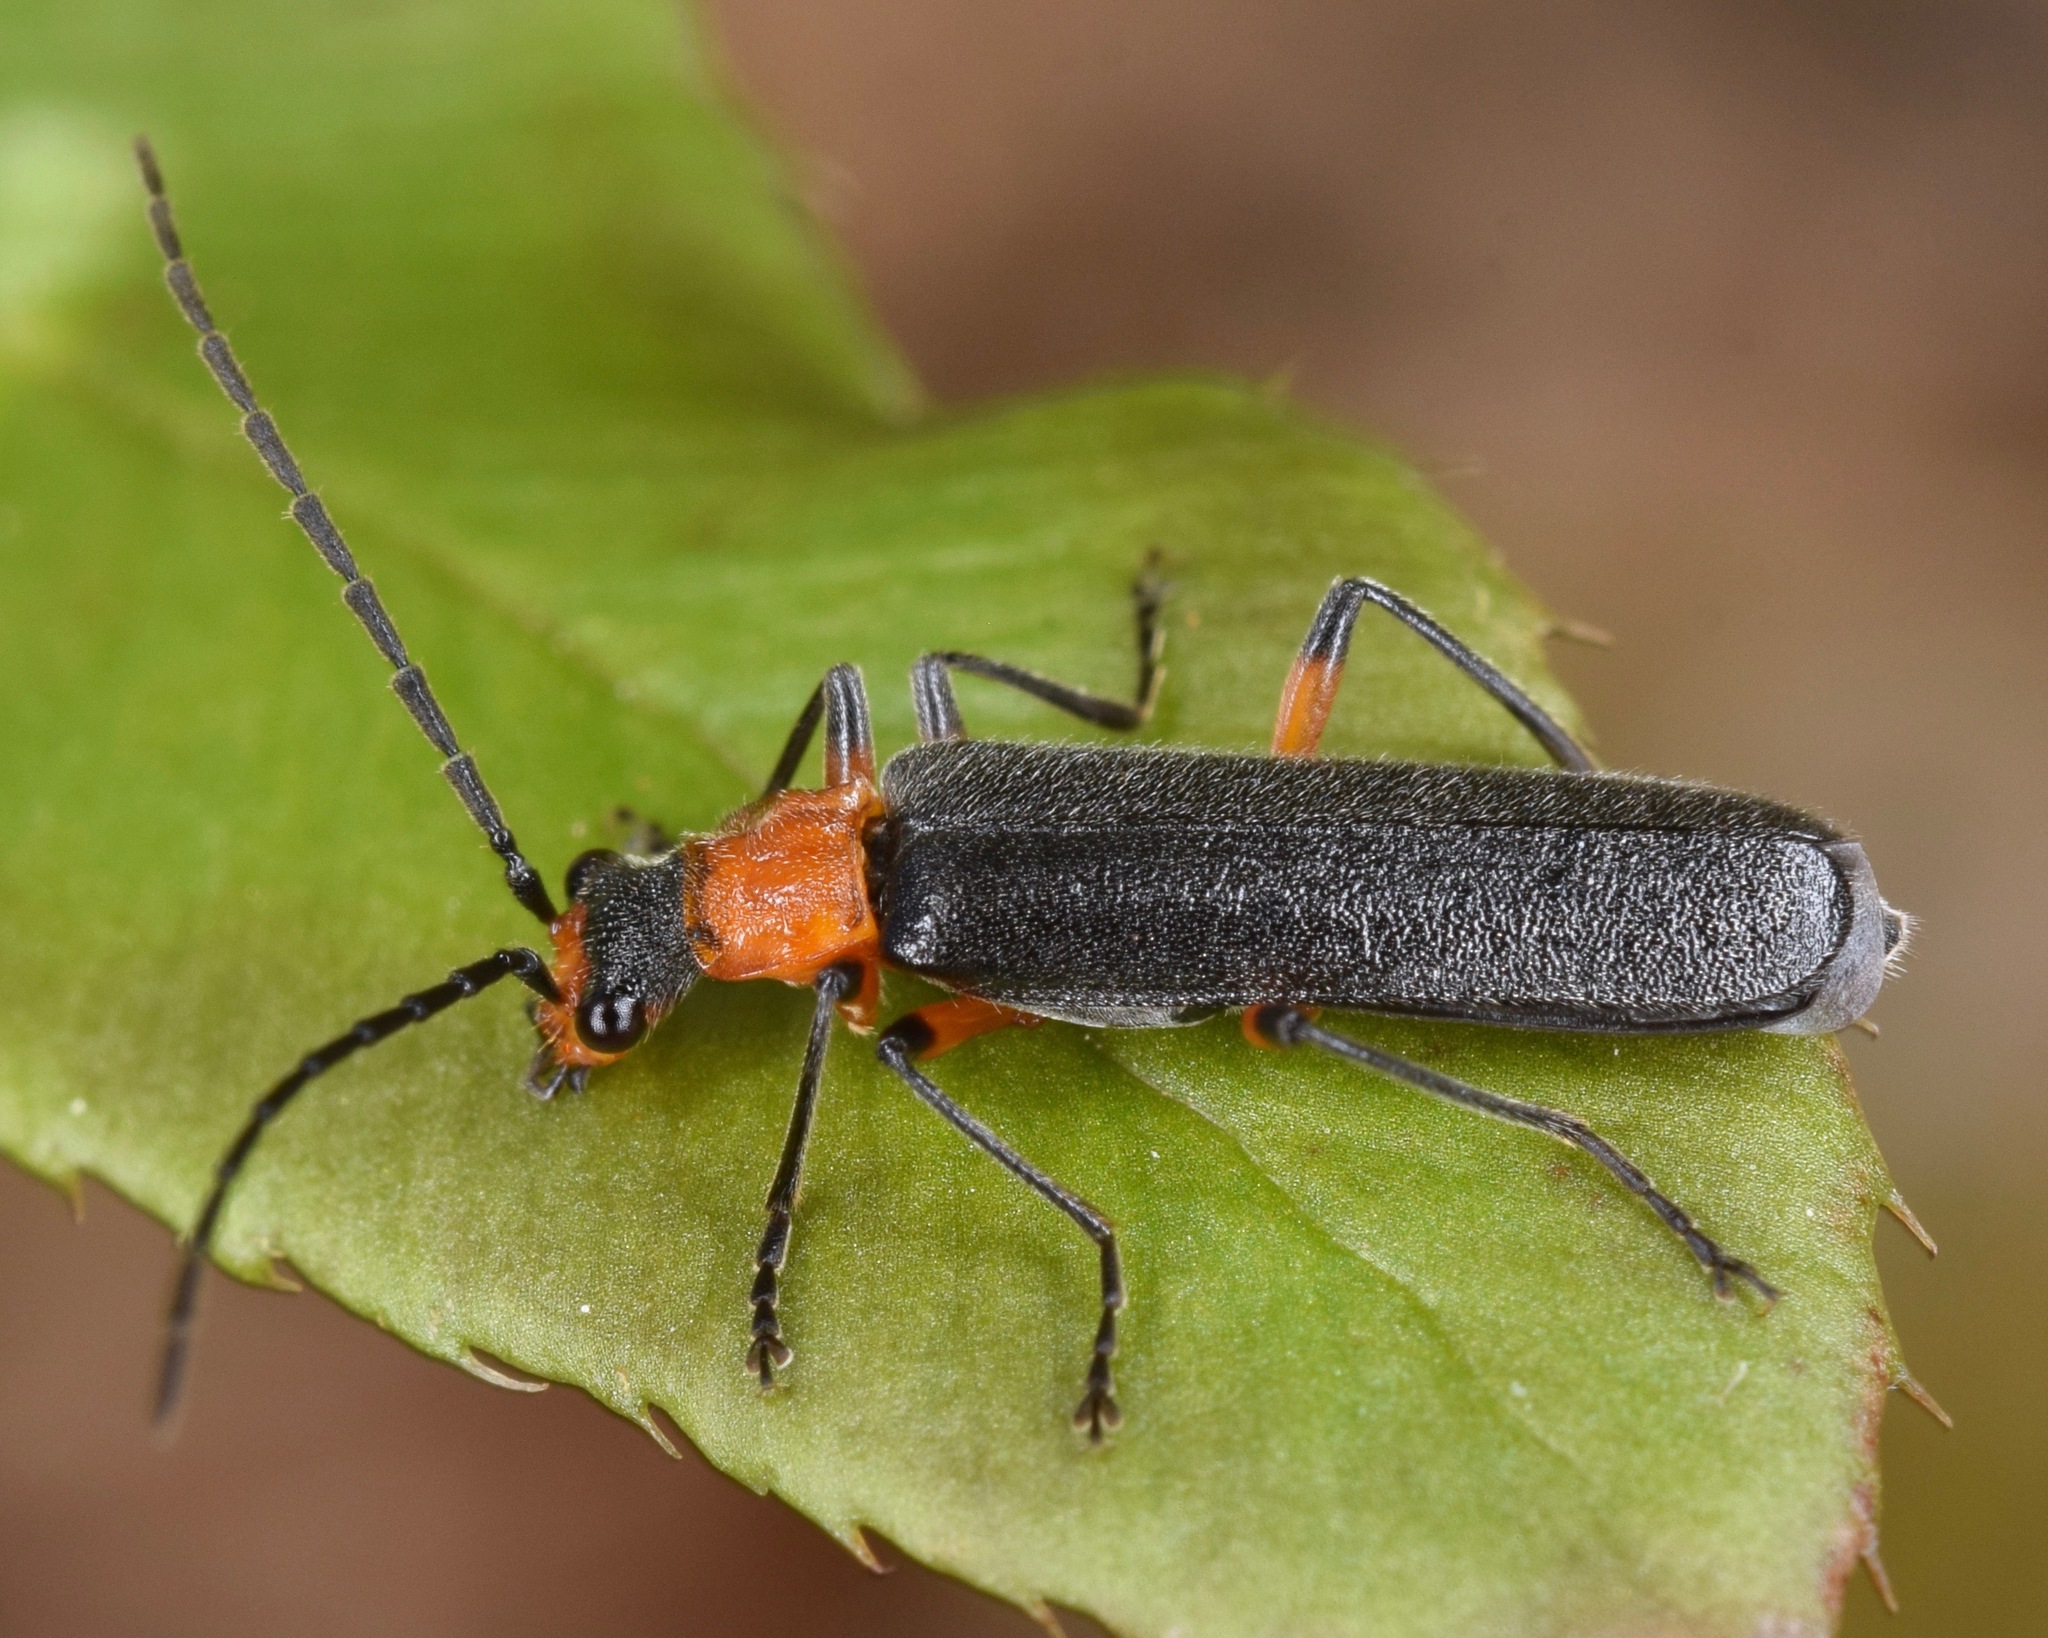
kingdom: Animalia
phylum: Arthropoda
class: Insecta
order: Coleoptera
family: Cantharidae
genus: Podabrus
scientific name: Podabrus vernalis
